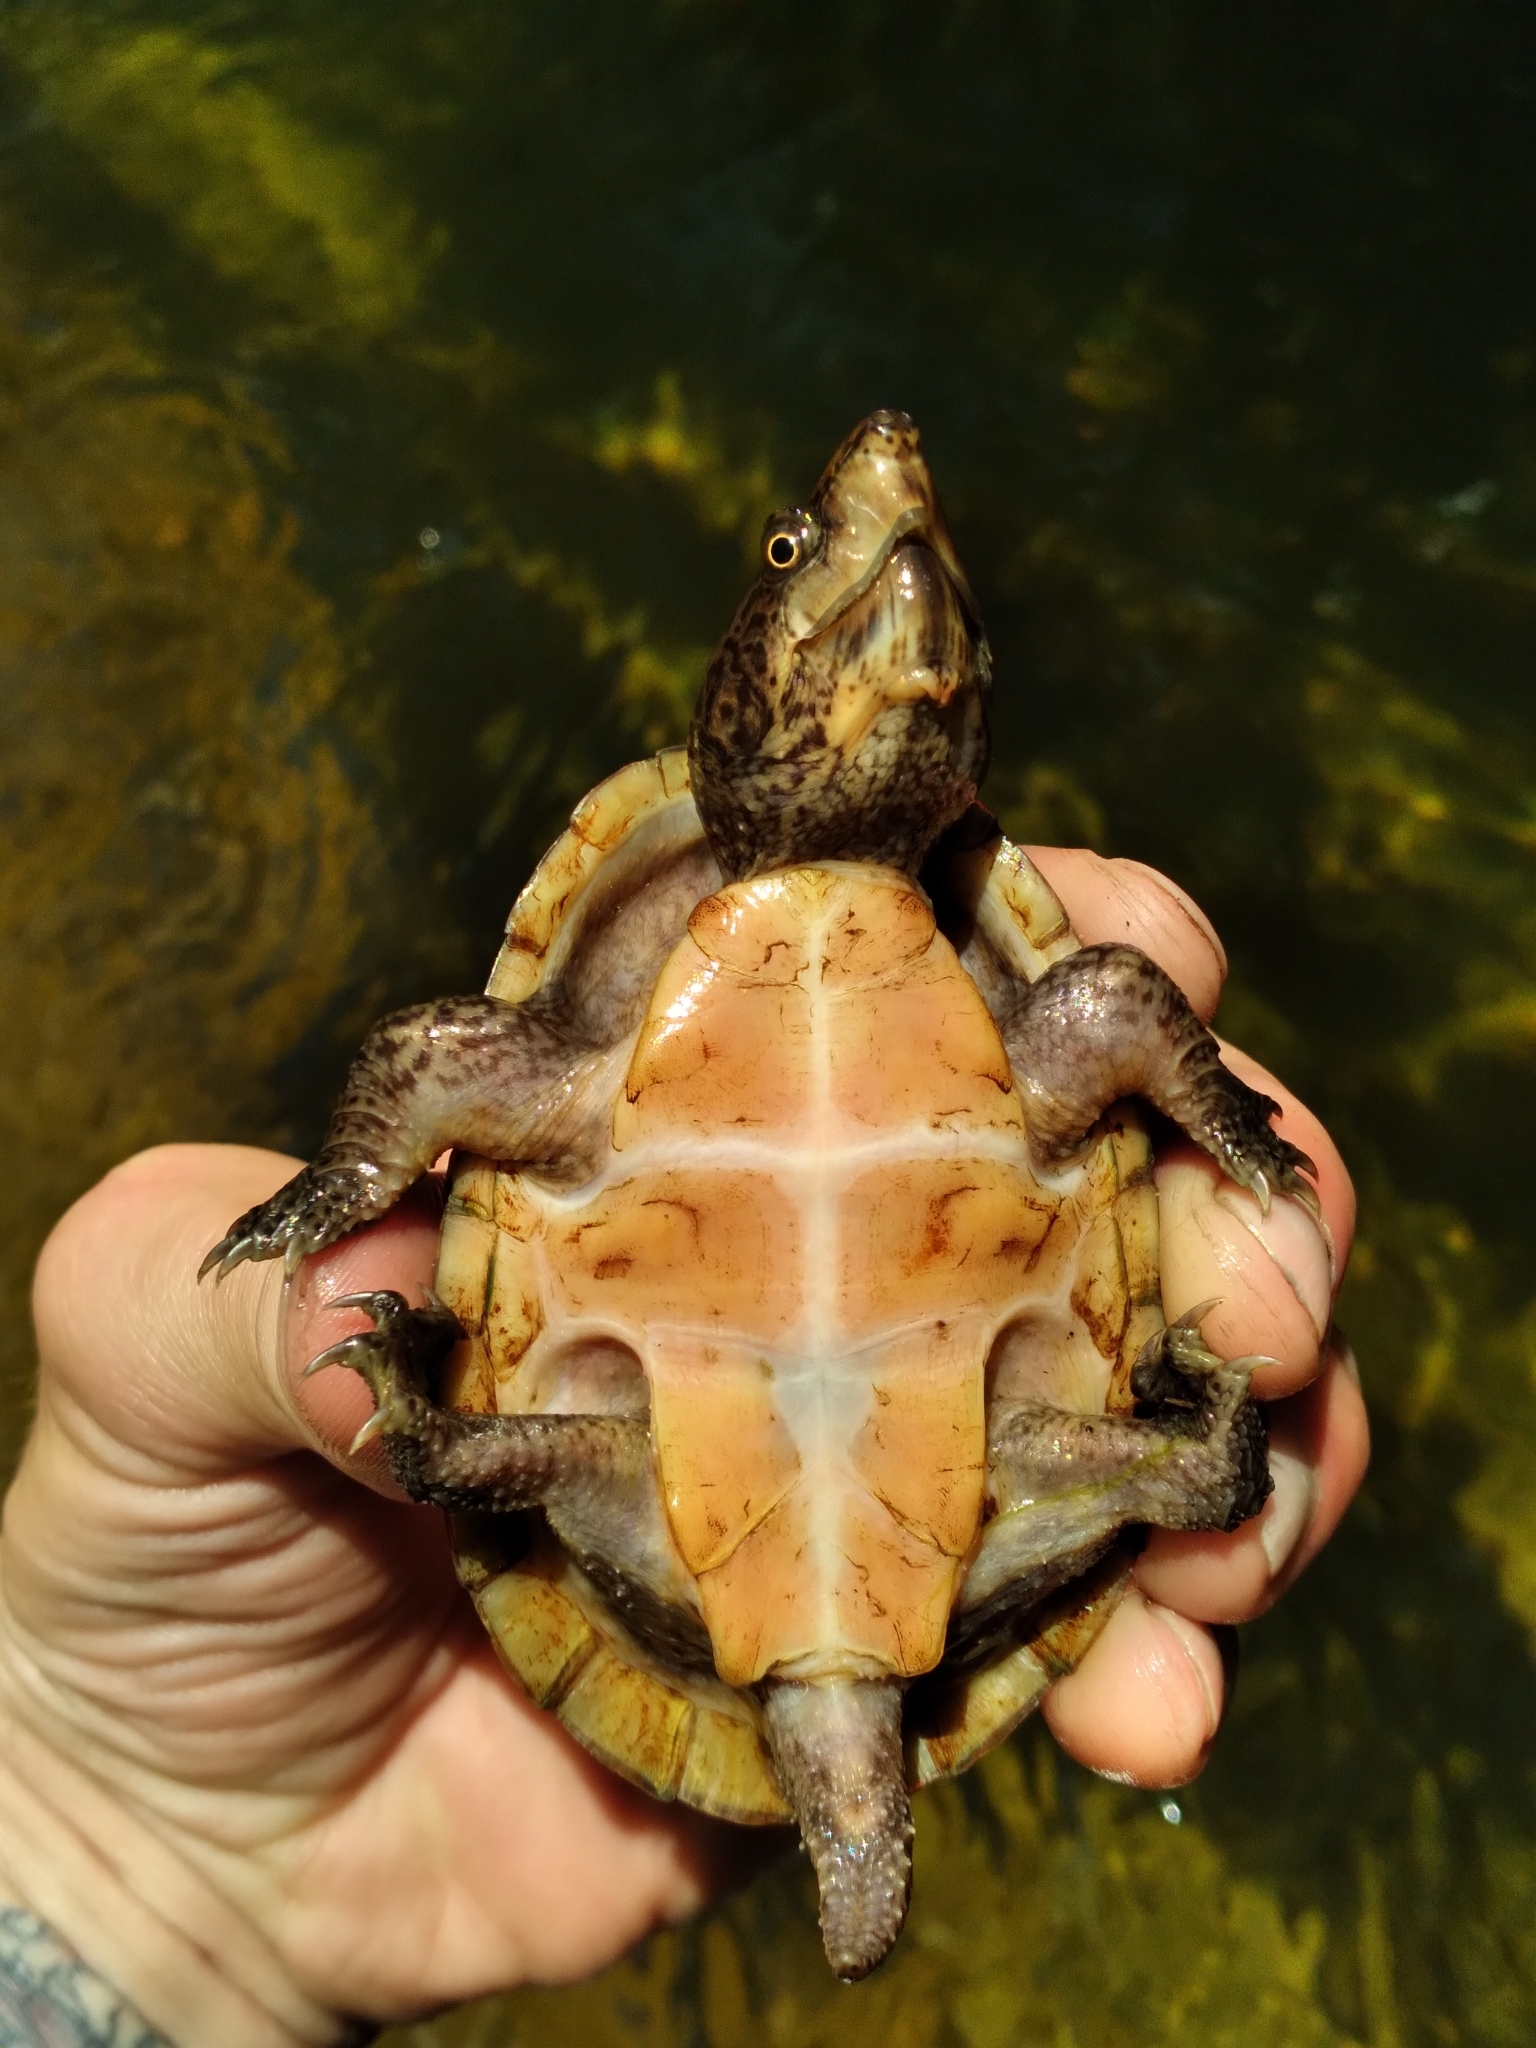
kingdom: Animalia
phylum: Chordata
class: Testudines
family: Kinosternidae
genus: Sternotherus
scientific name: Sternotherus intermedius
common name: Intermediate musk turtle
